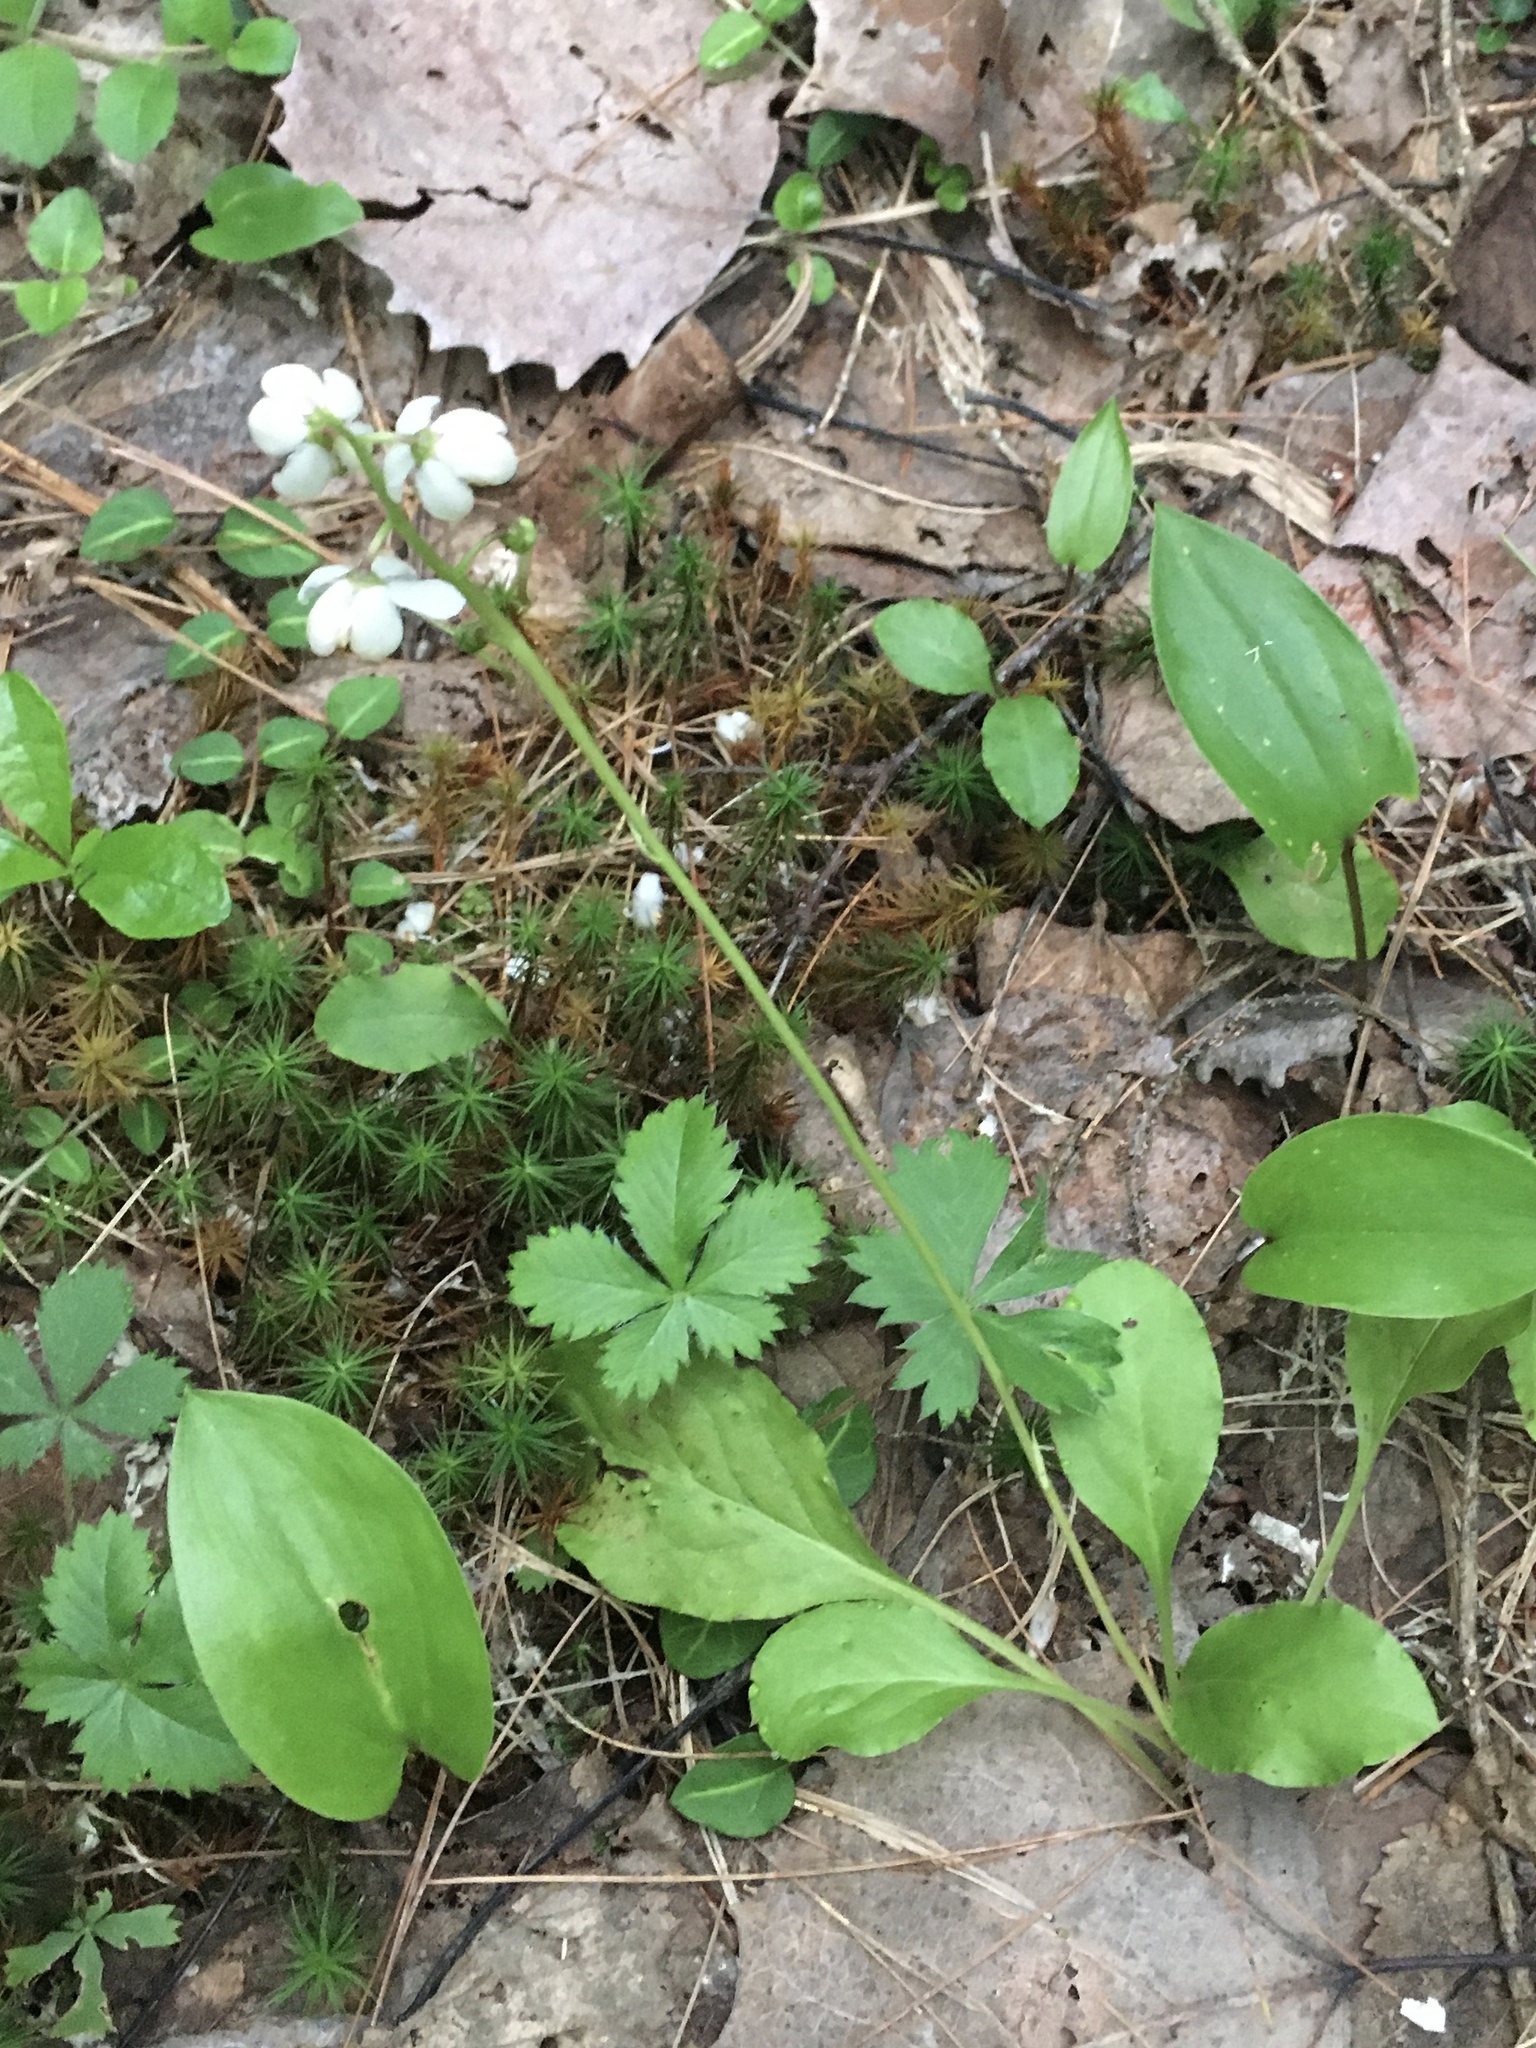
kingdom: Plantae
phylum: Tracheophyta
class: Magnoliopsida
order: Ericales
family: Ericaceae
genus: Pyrola
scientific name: Pyrola elliptica
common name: Shinleaf
